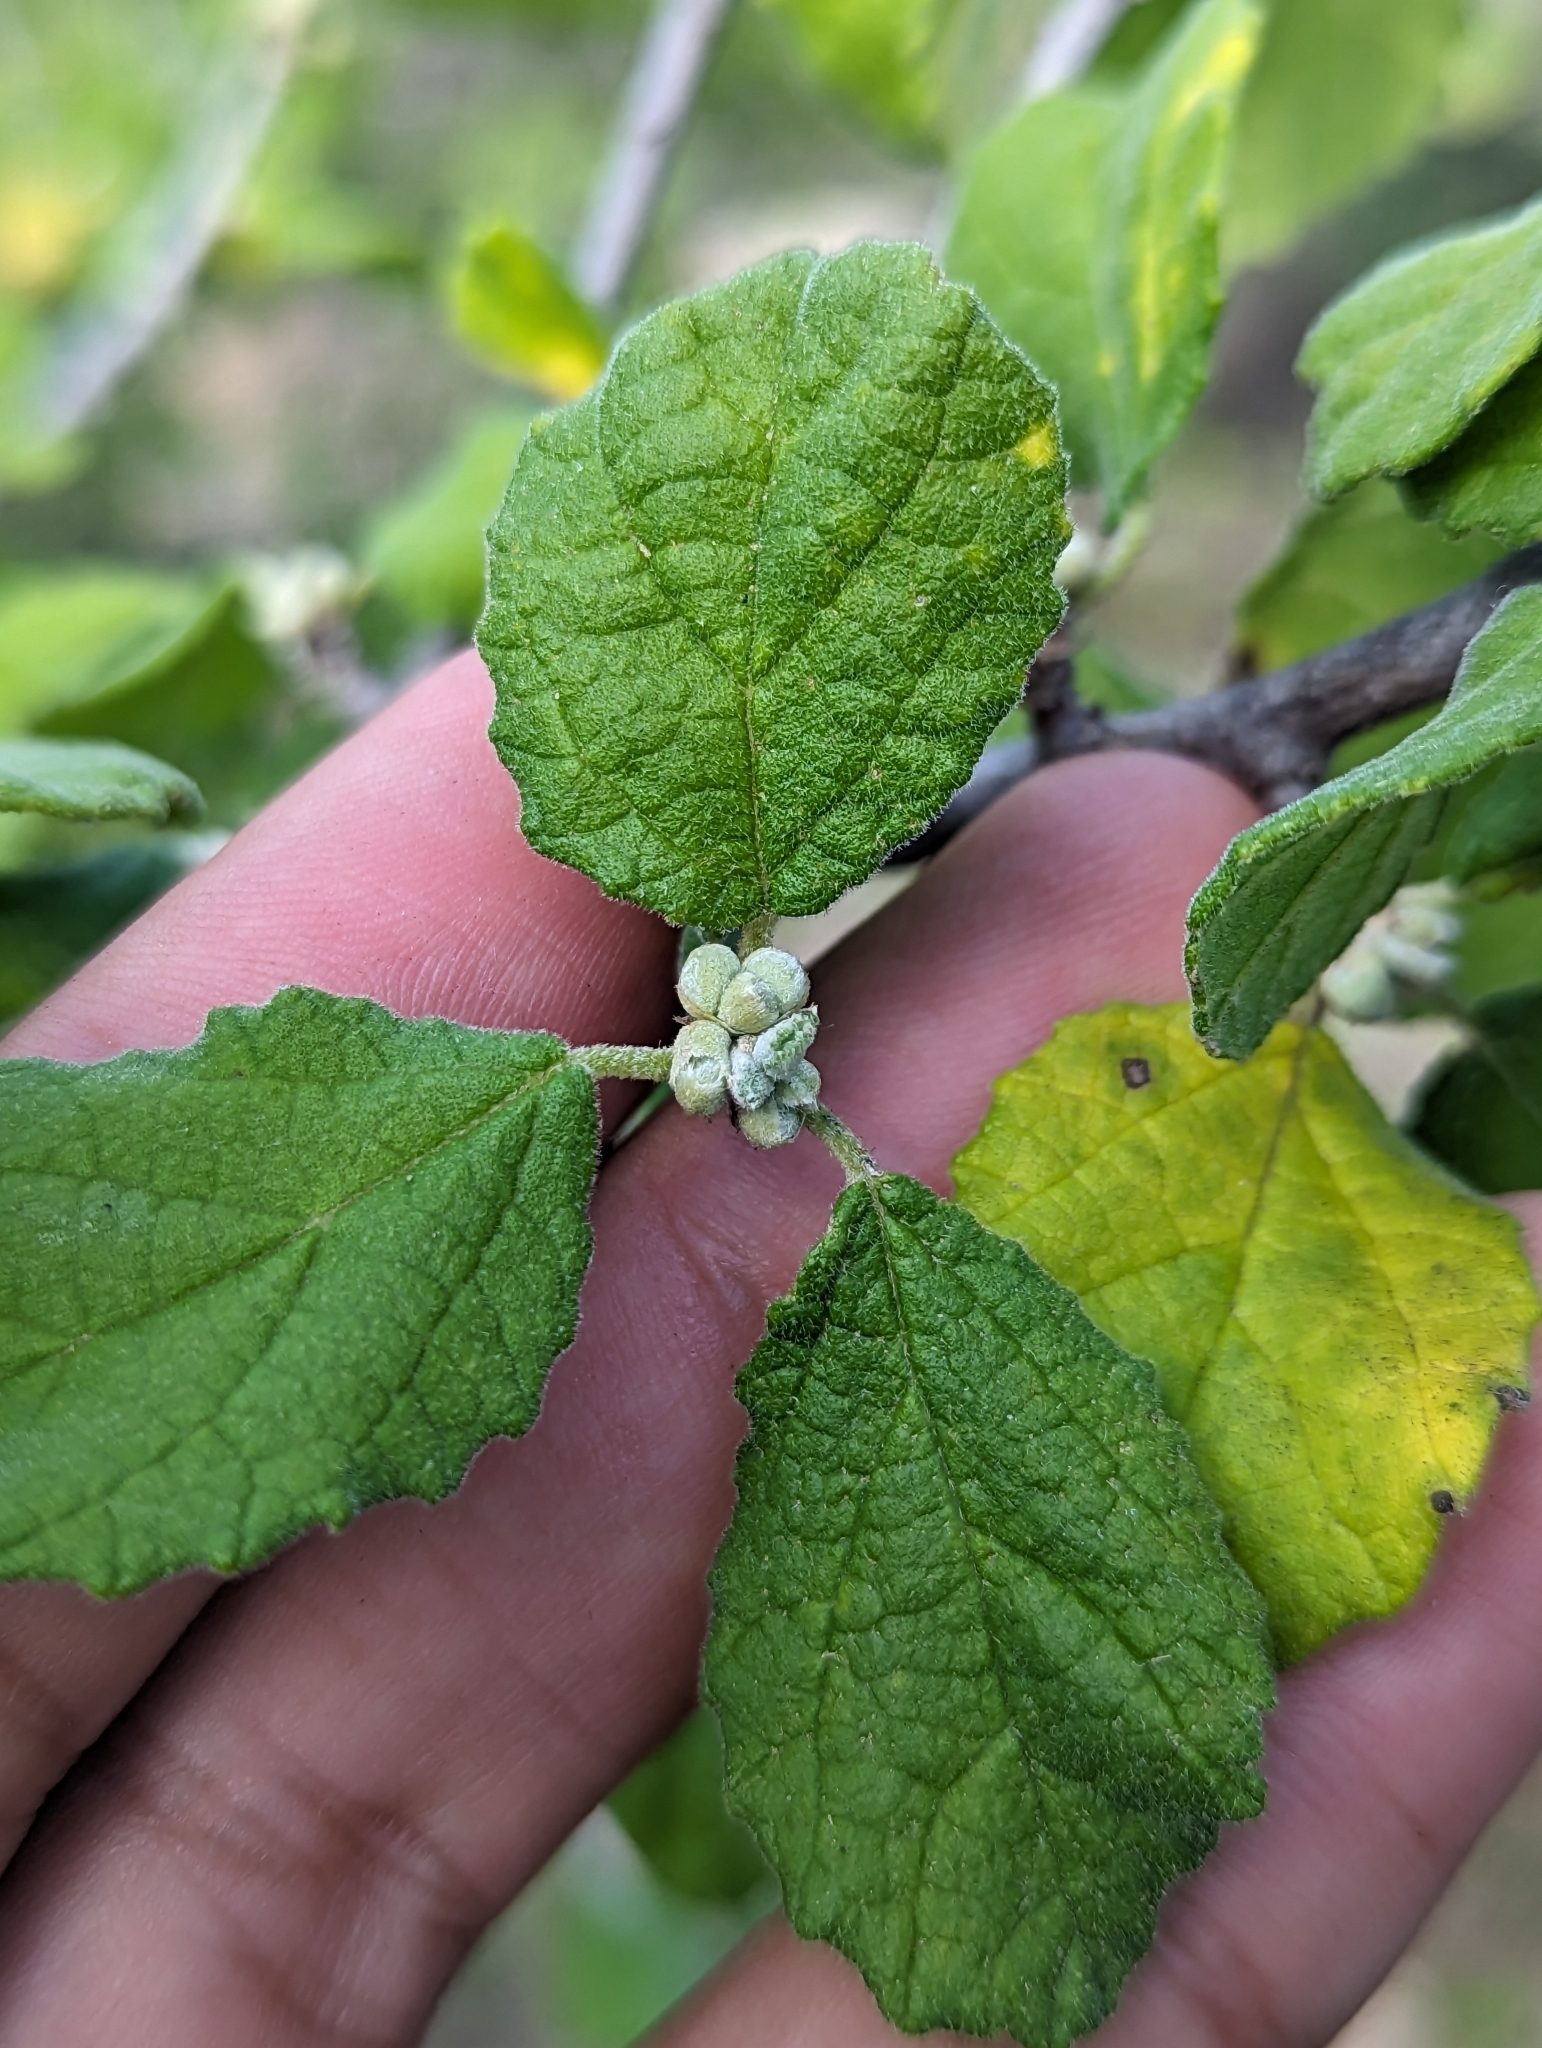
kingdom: Plantae
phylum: Tracheophyta
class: Magnoliopsida
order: Malpighiales
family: Euphorbiaceae
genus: Bernardia
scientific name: Bernardia viridis
